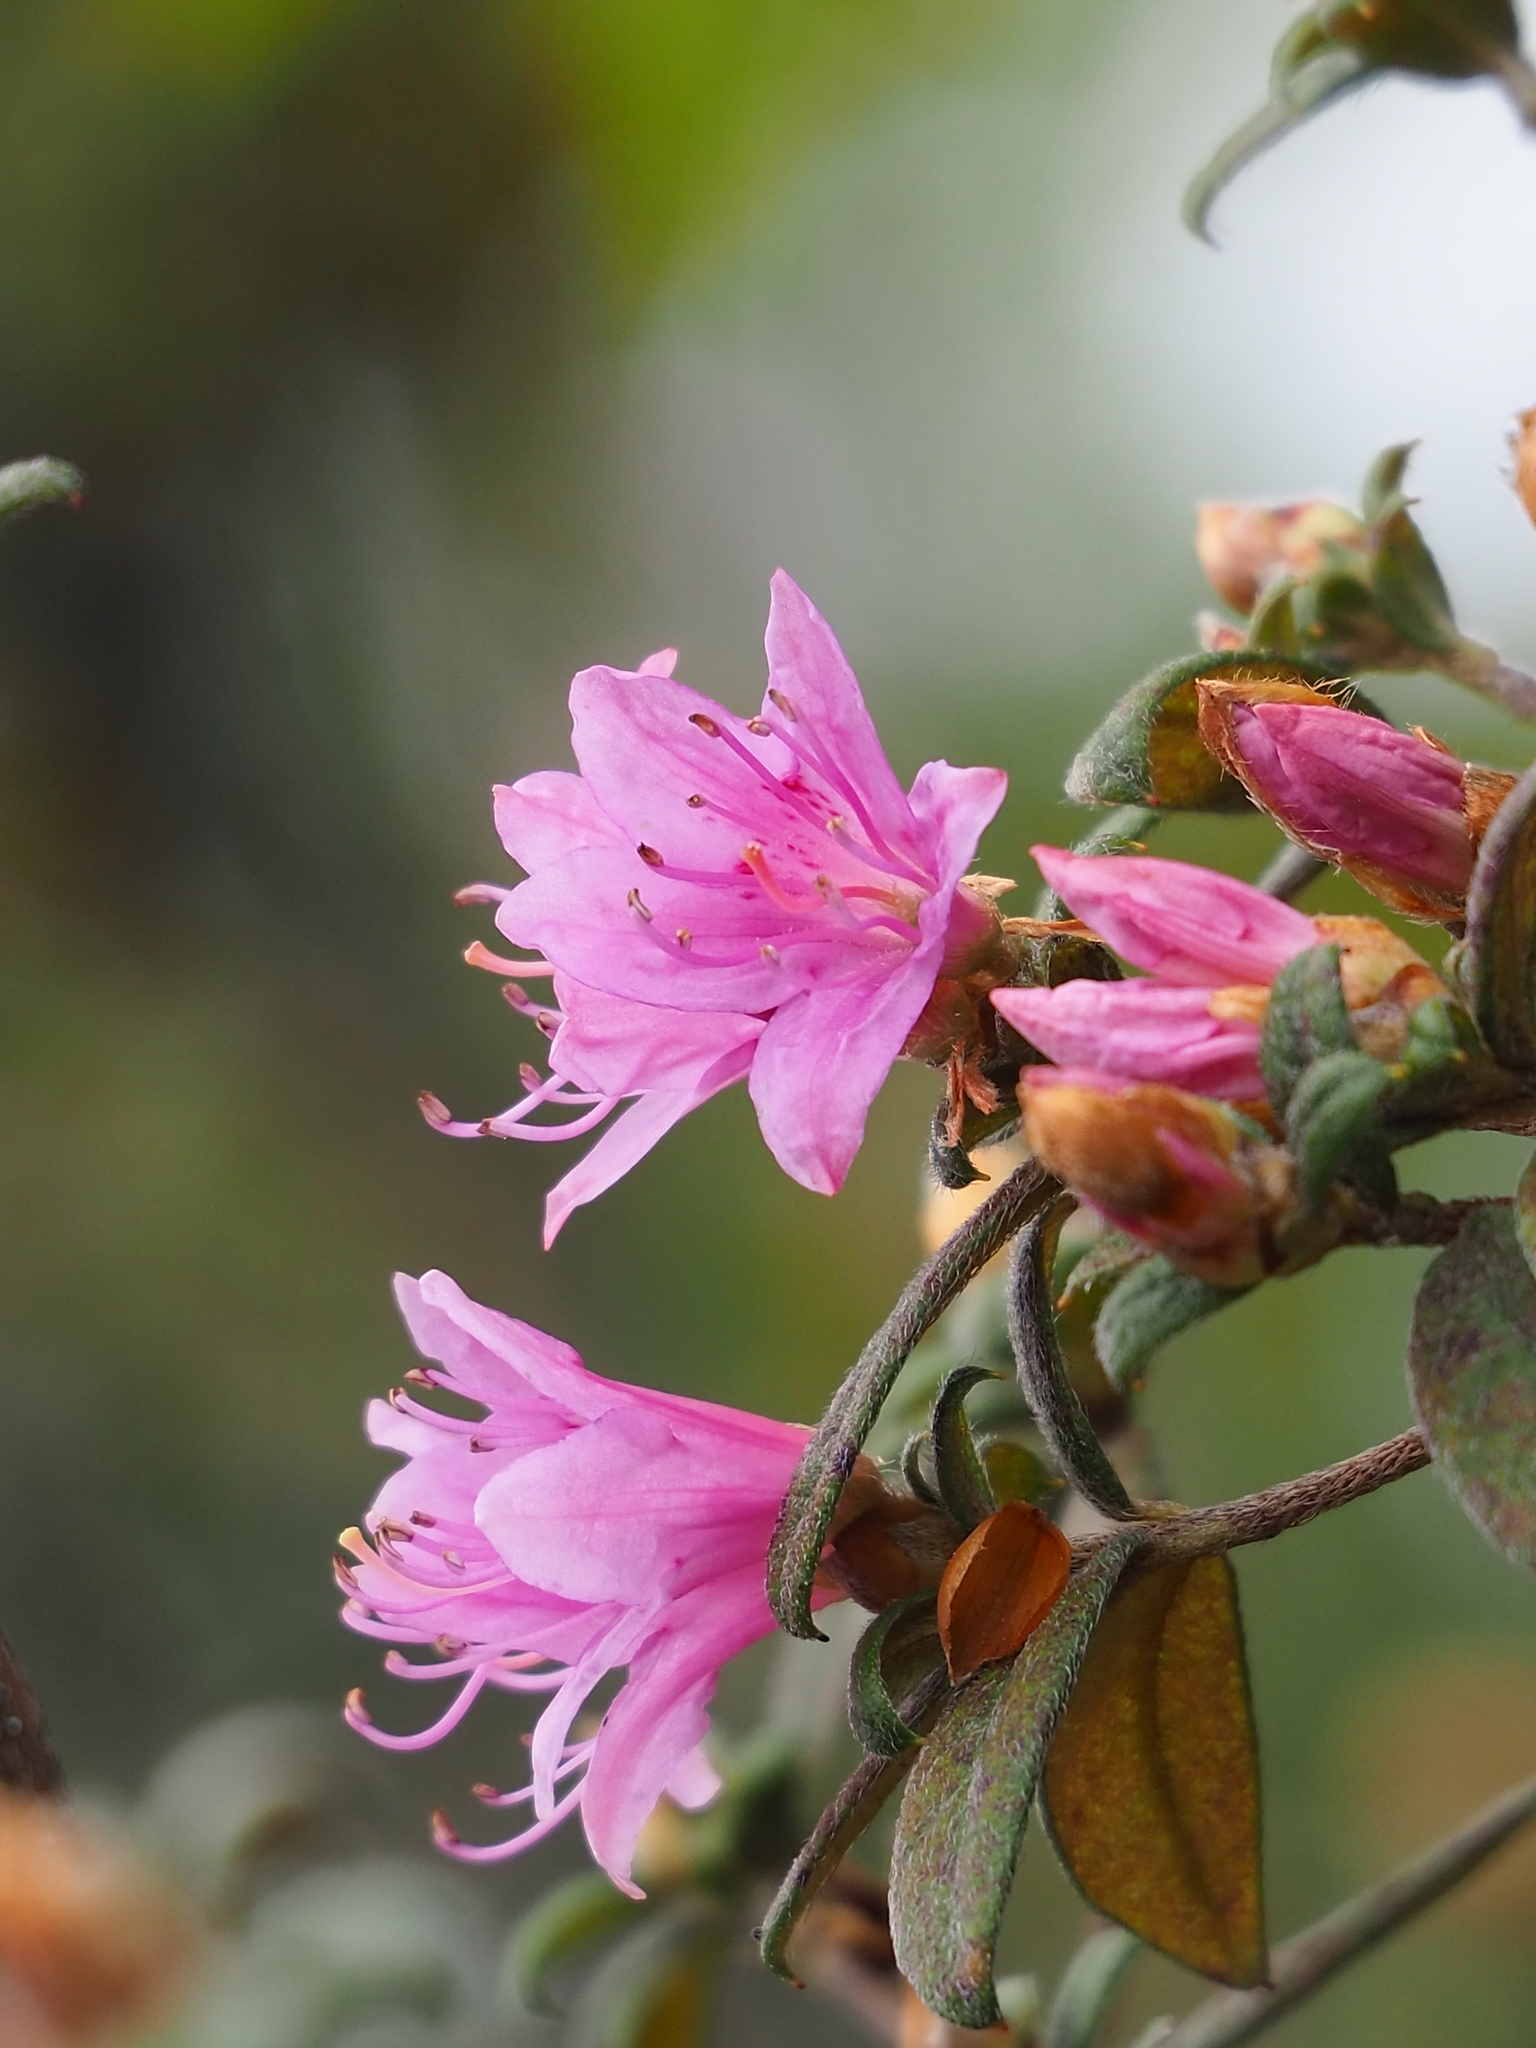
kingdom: Plantae
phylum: Tracheophyta
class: Magnoliopsida
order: Ericales
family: Ericaceae
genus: Rhododendron
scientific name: Rhododendron rubropilosum
